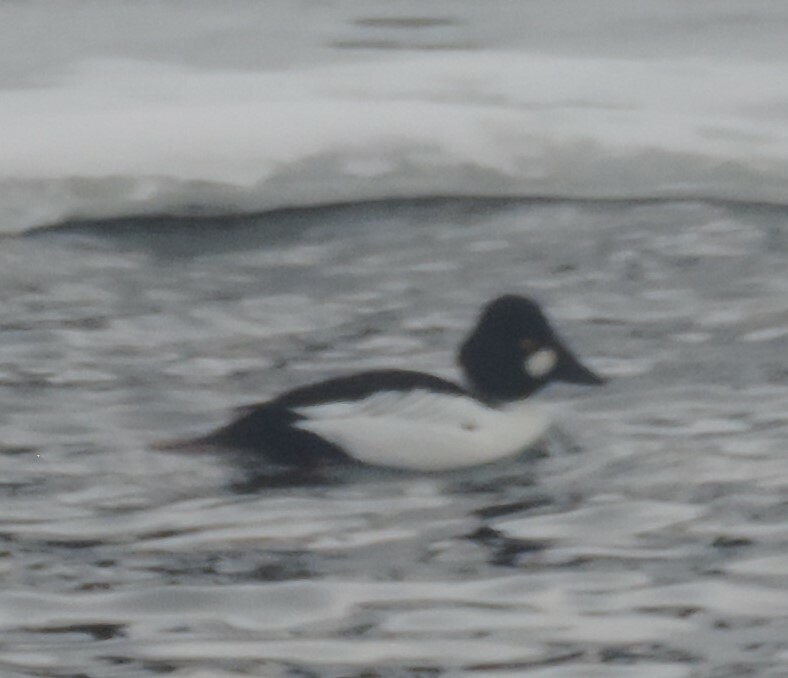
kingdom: Animalia
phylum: Chordata
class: Aves
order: Anseriformes
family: Anatidae
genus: Bucephala
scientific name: Bucephala clangula
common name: Common goldeneye
